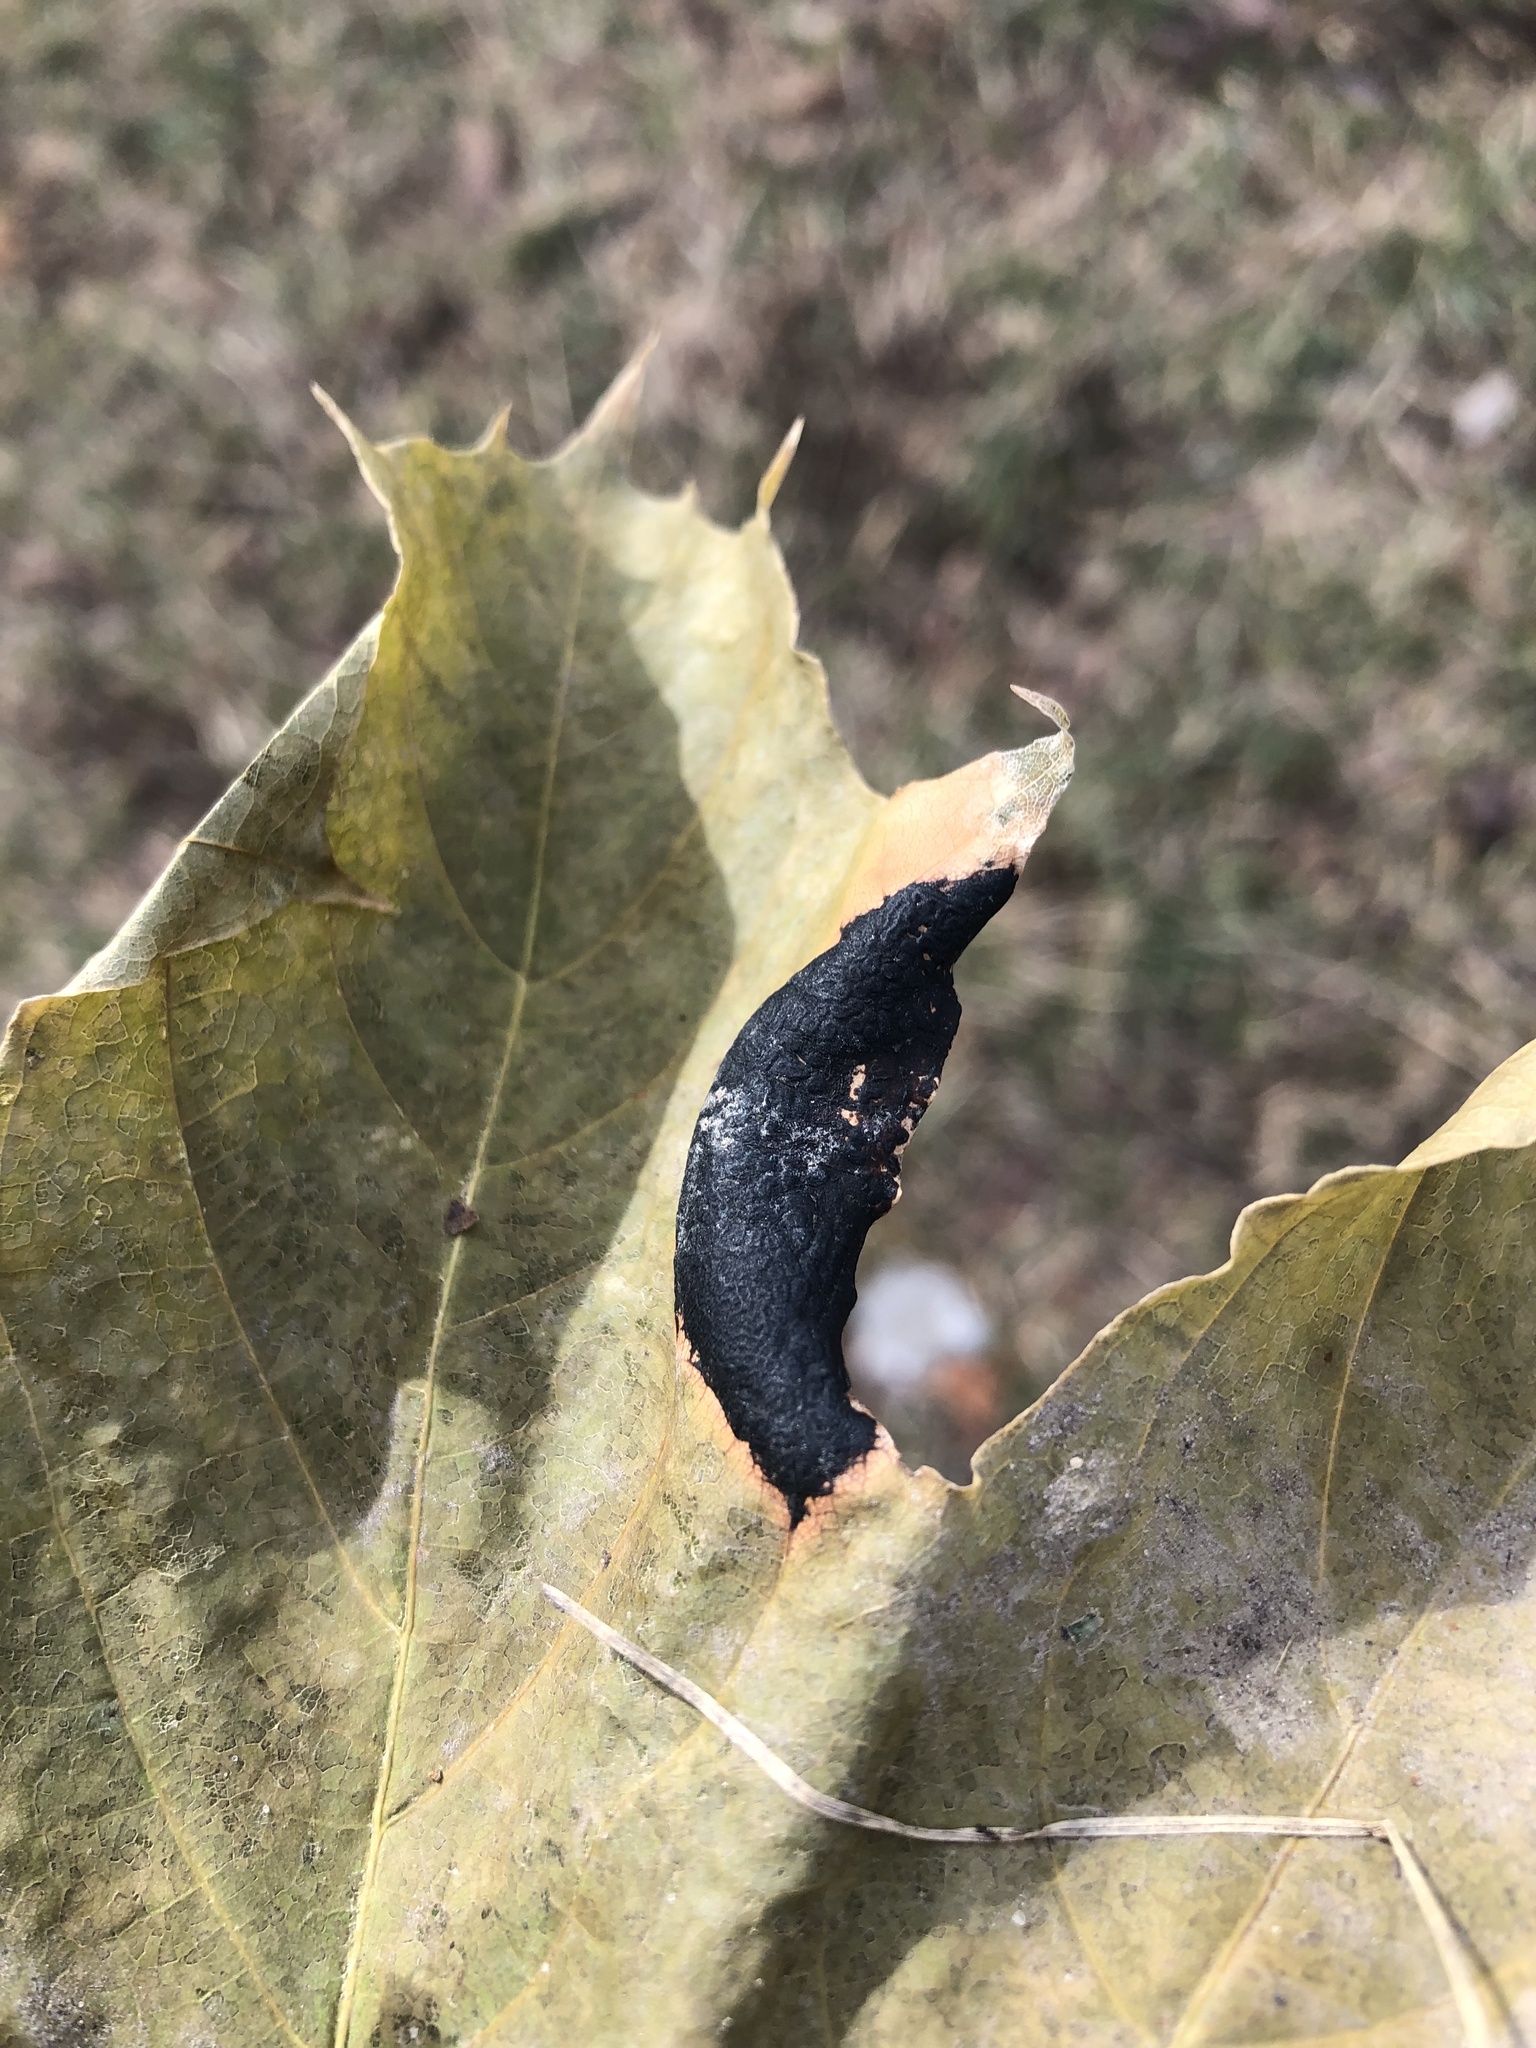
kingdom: Fungi
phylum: Ascomycota
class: Leotiomycetes
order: Rhytismatales
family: Rhytismataceae
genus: Rhytisma
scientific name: Rhytisma acerinum
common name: European tar spot
